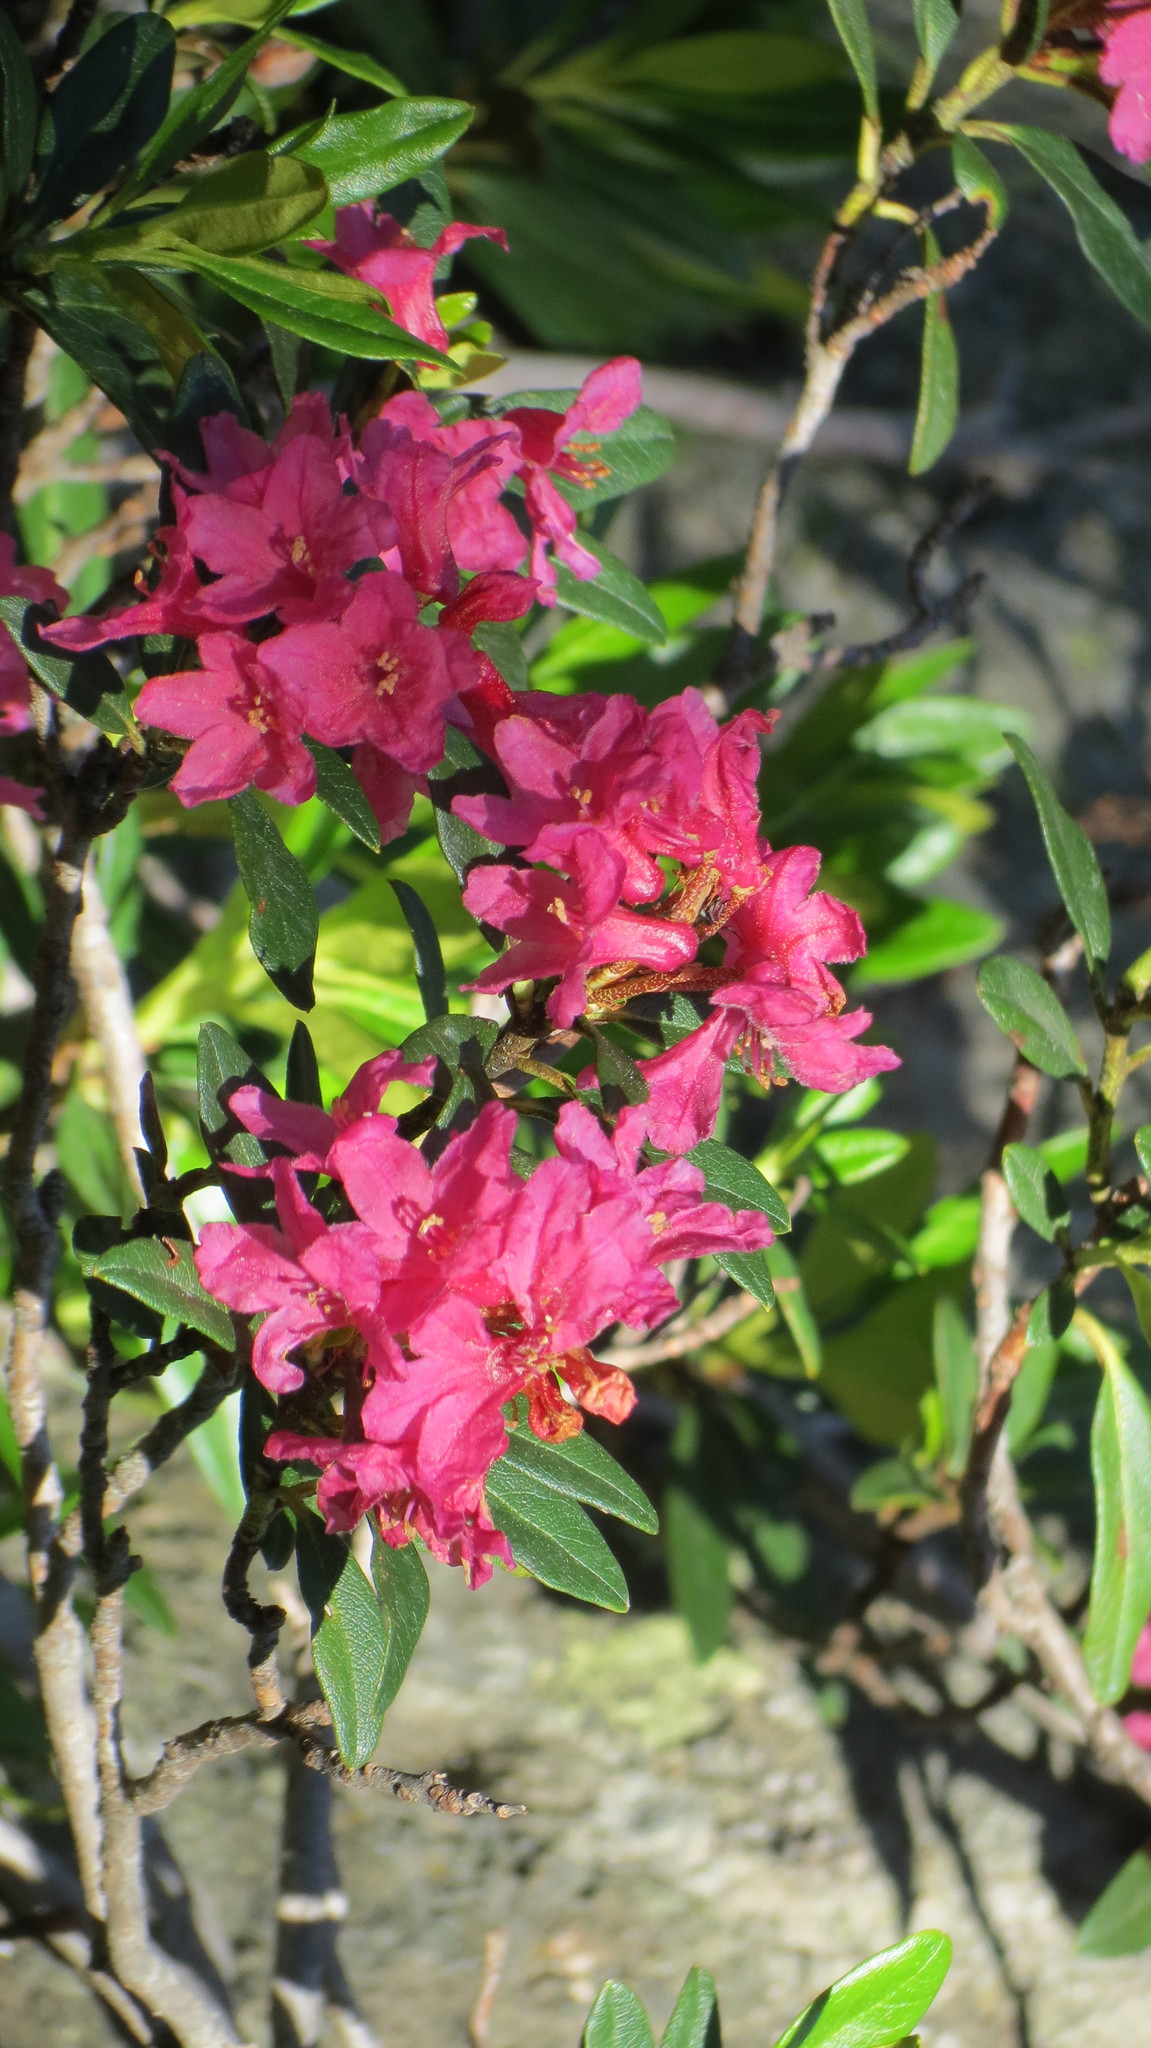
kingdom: Plantae
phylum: Tracheophyta
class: Magnoliopsida
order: Ericales
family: Ericaceae
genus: Rhododendron
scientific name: Rhododendron ferrugineum
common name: Alpenrose
